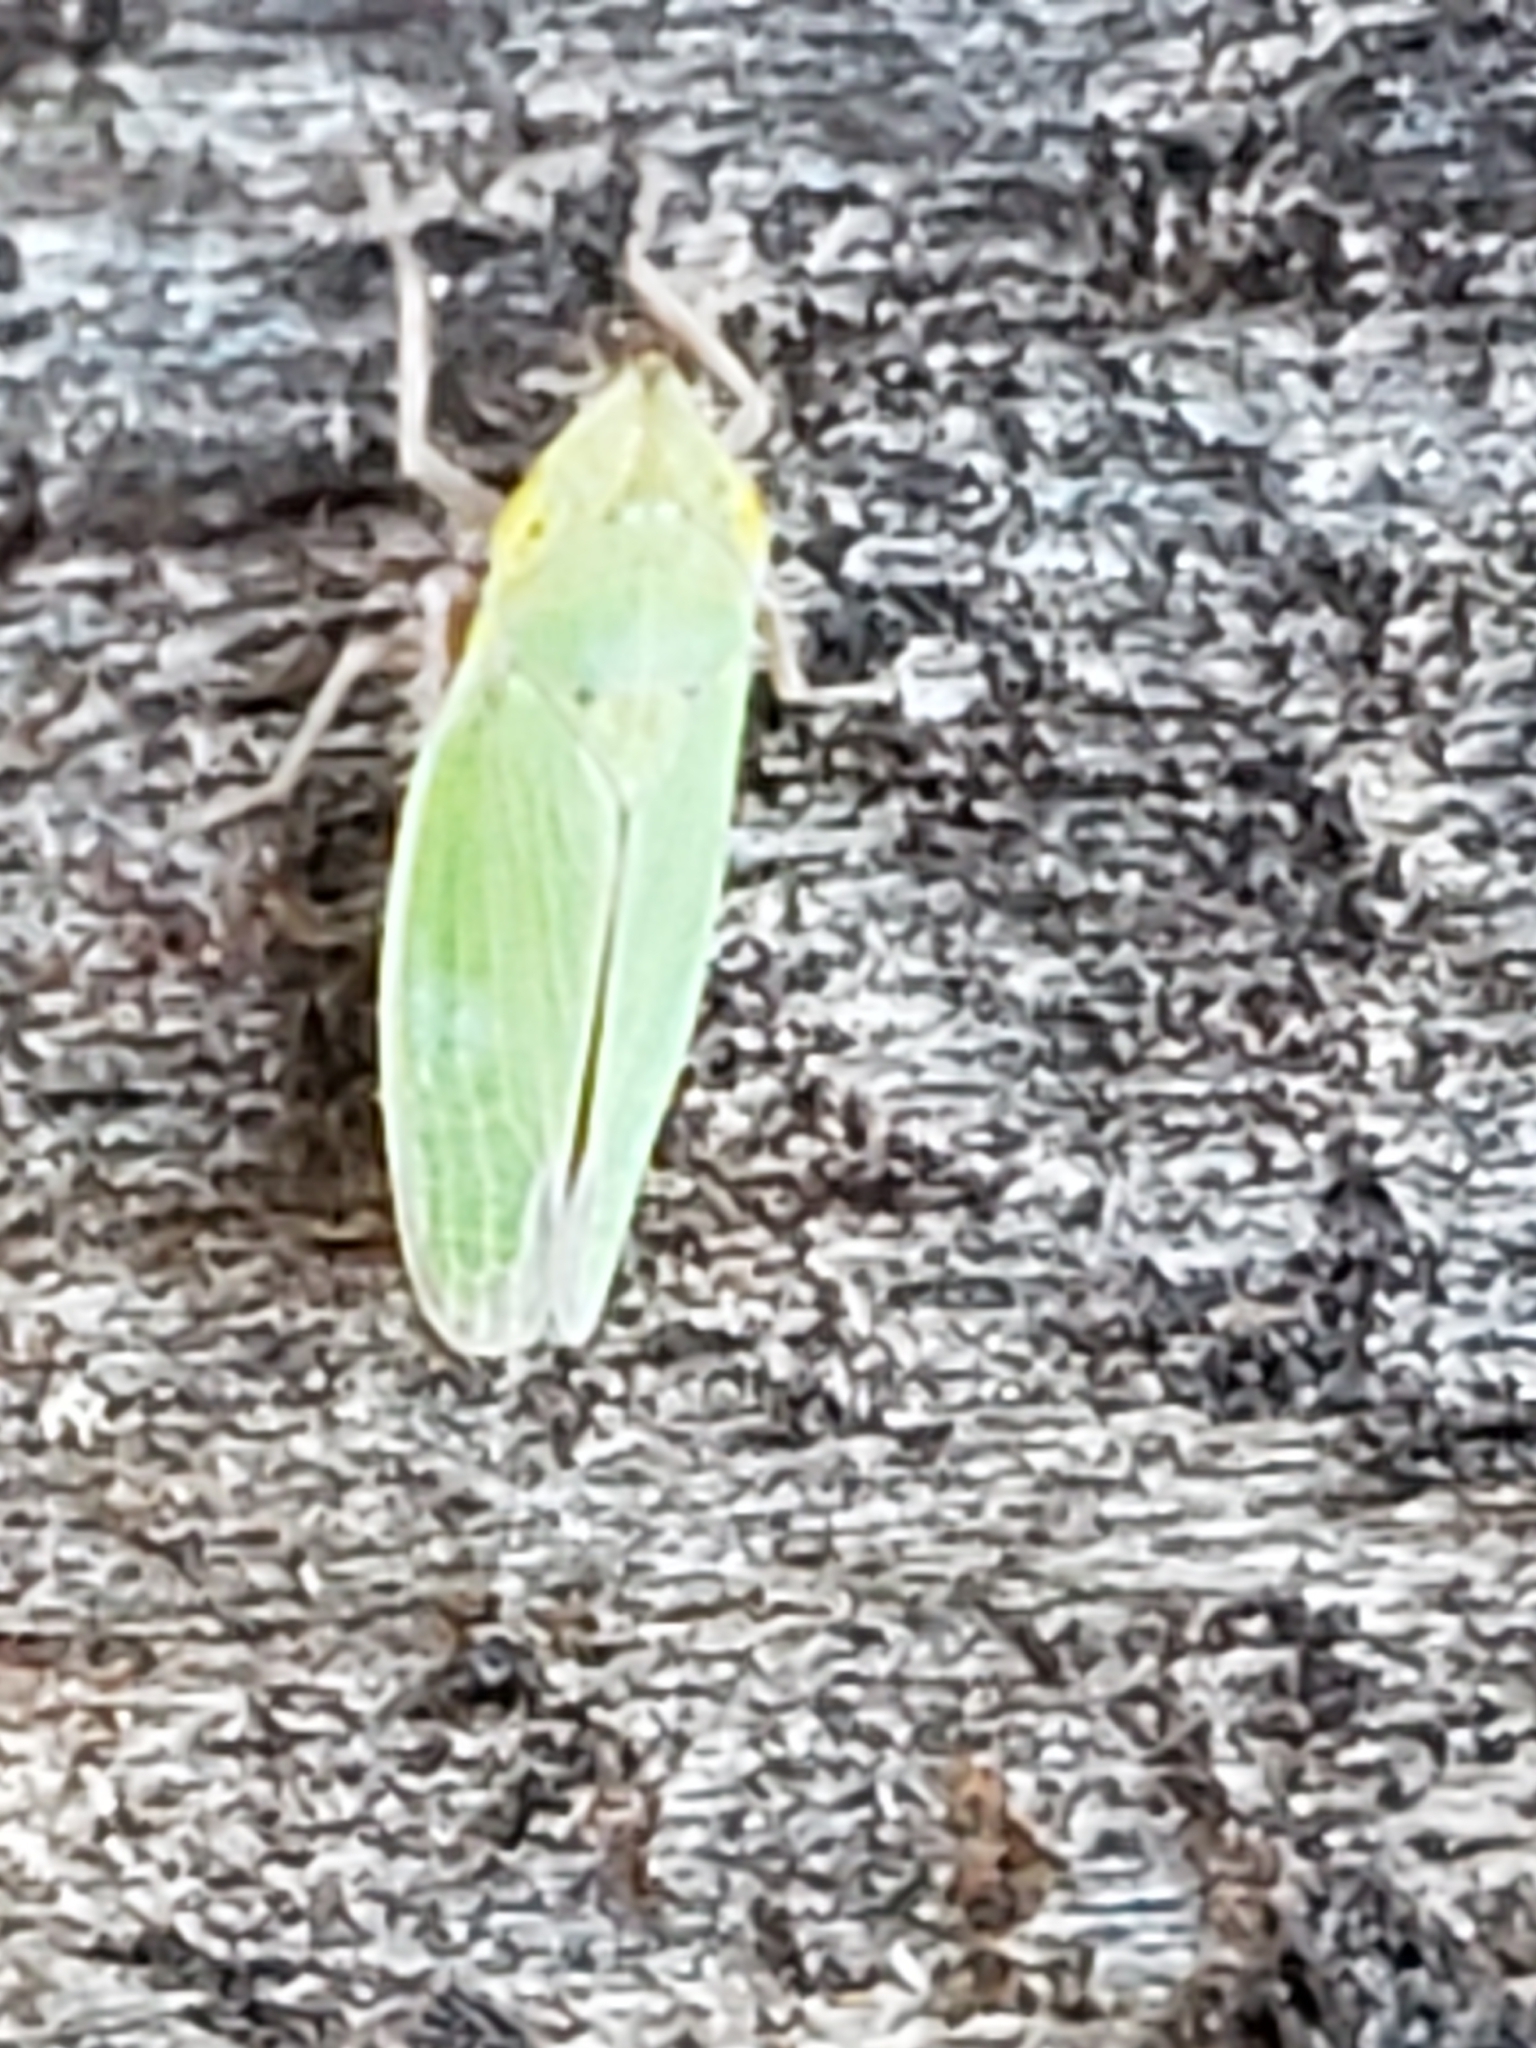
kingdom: Animalia
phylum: Arthropoda
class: Insecta
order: Hemiptera
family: Cicadellidae
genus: Draeculacephala
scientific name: Draeculacephala balli
